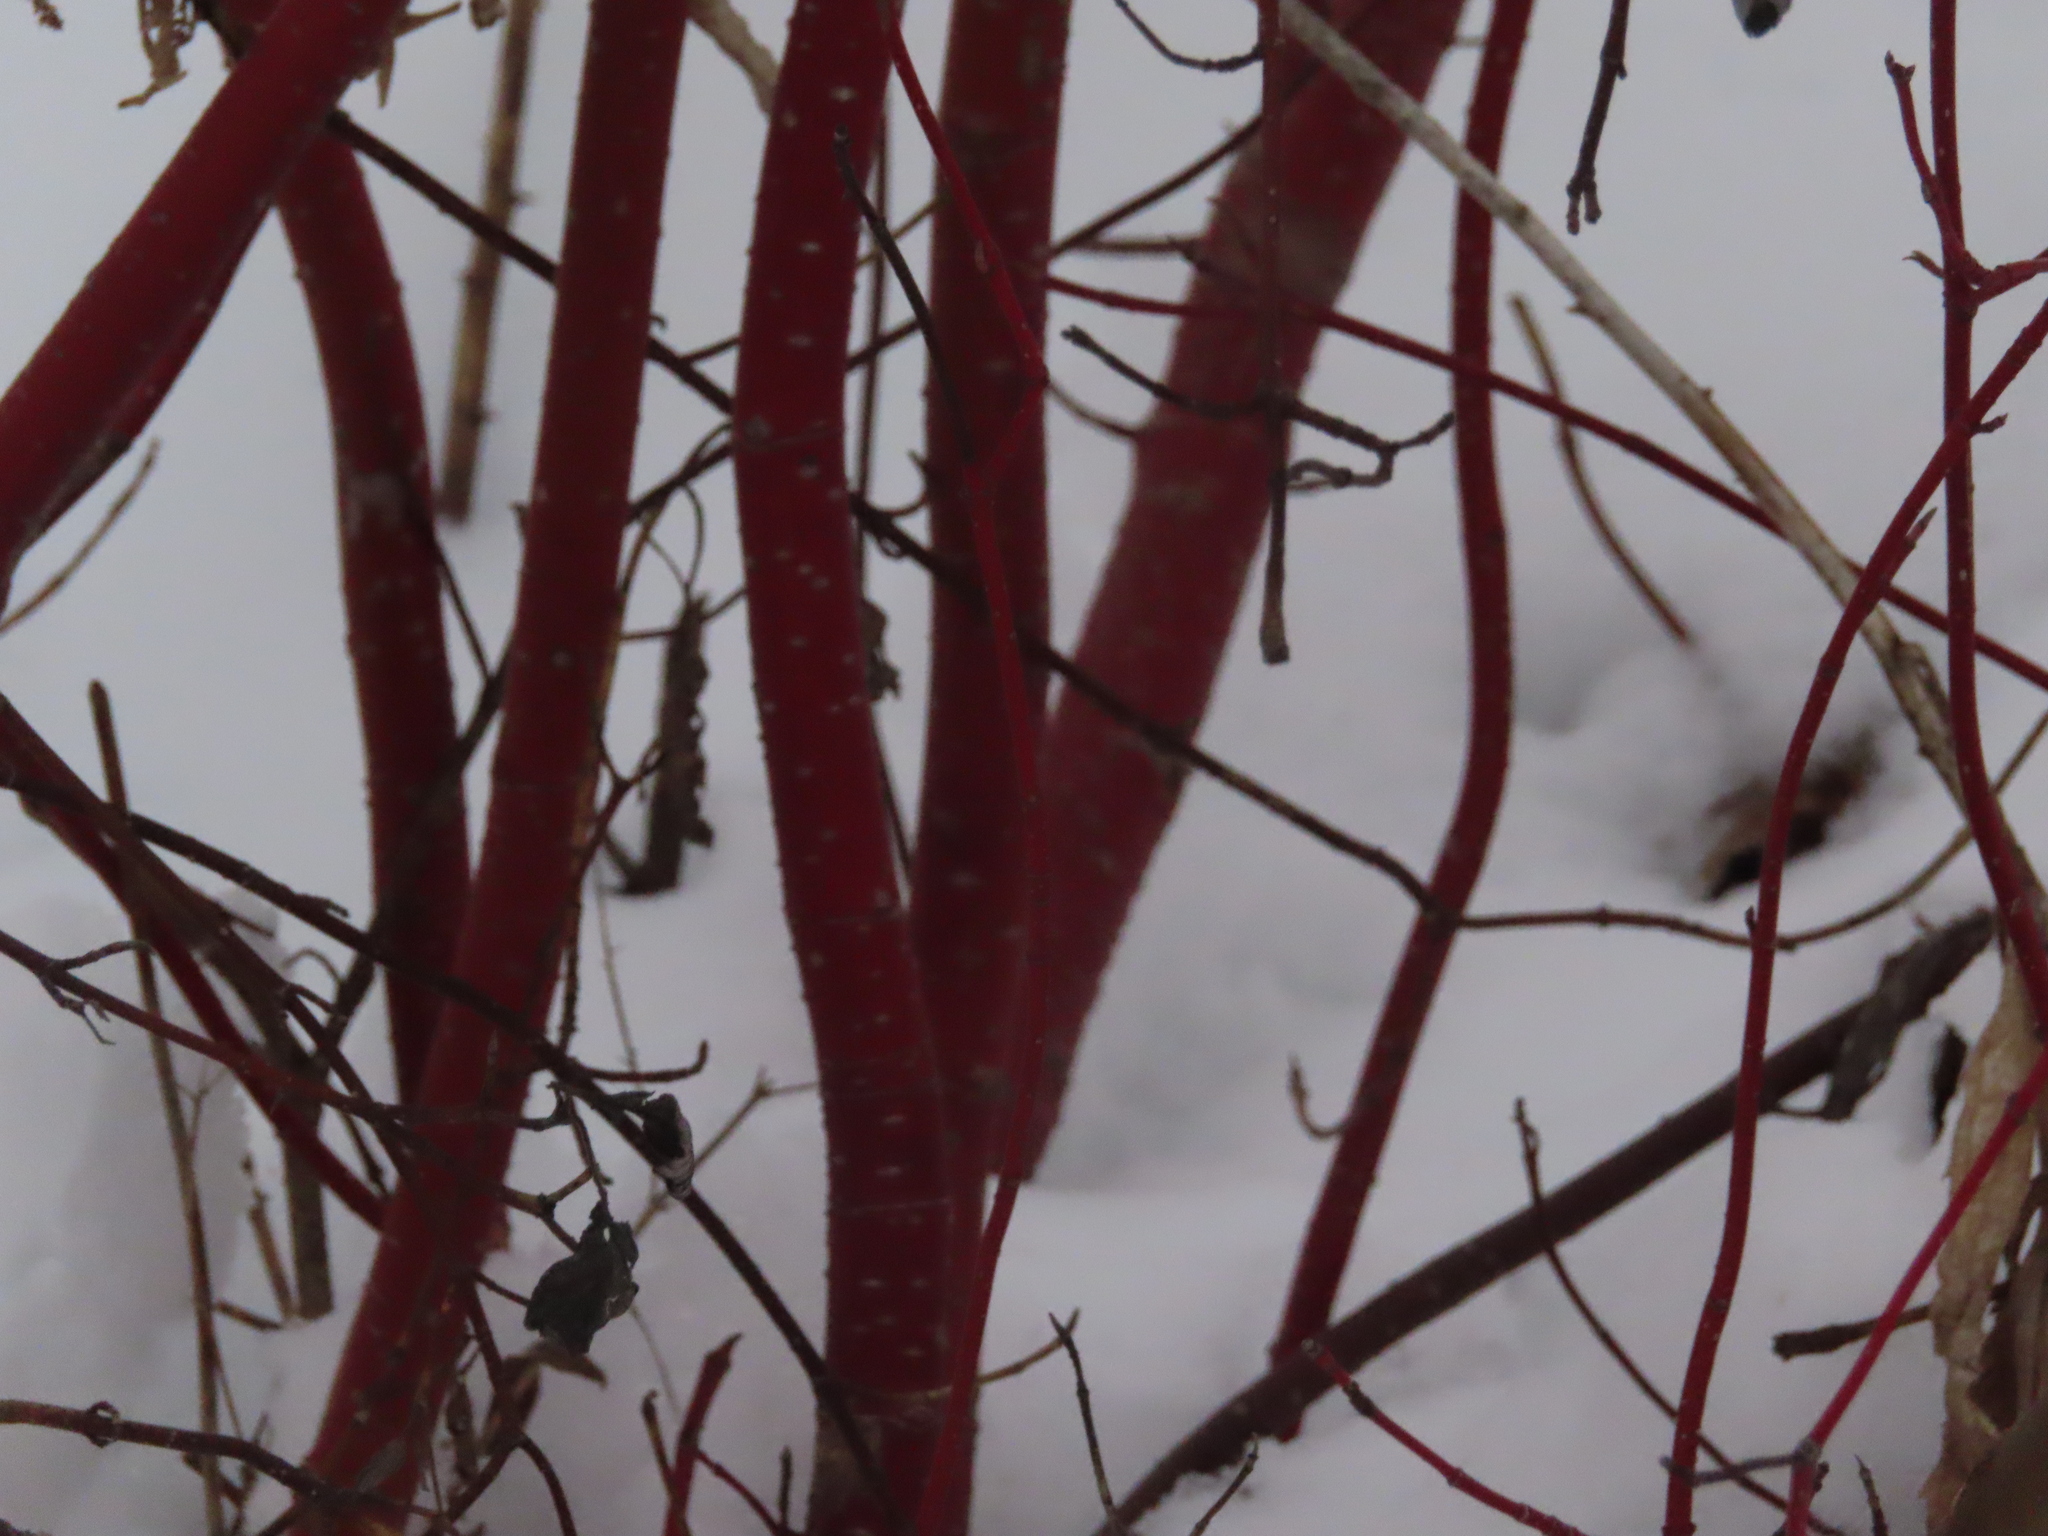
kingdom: Plantae
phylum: Tracheophyta
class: Magnoliopsida
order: Cornales
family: Cornaceae
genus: Cornus
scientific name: Cornus sericea
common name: Red-osier dogwood
